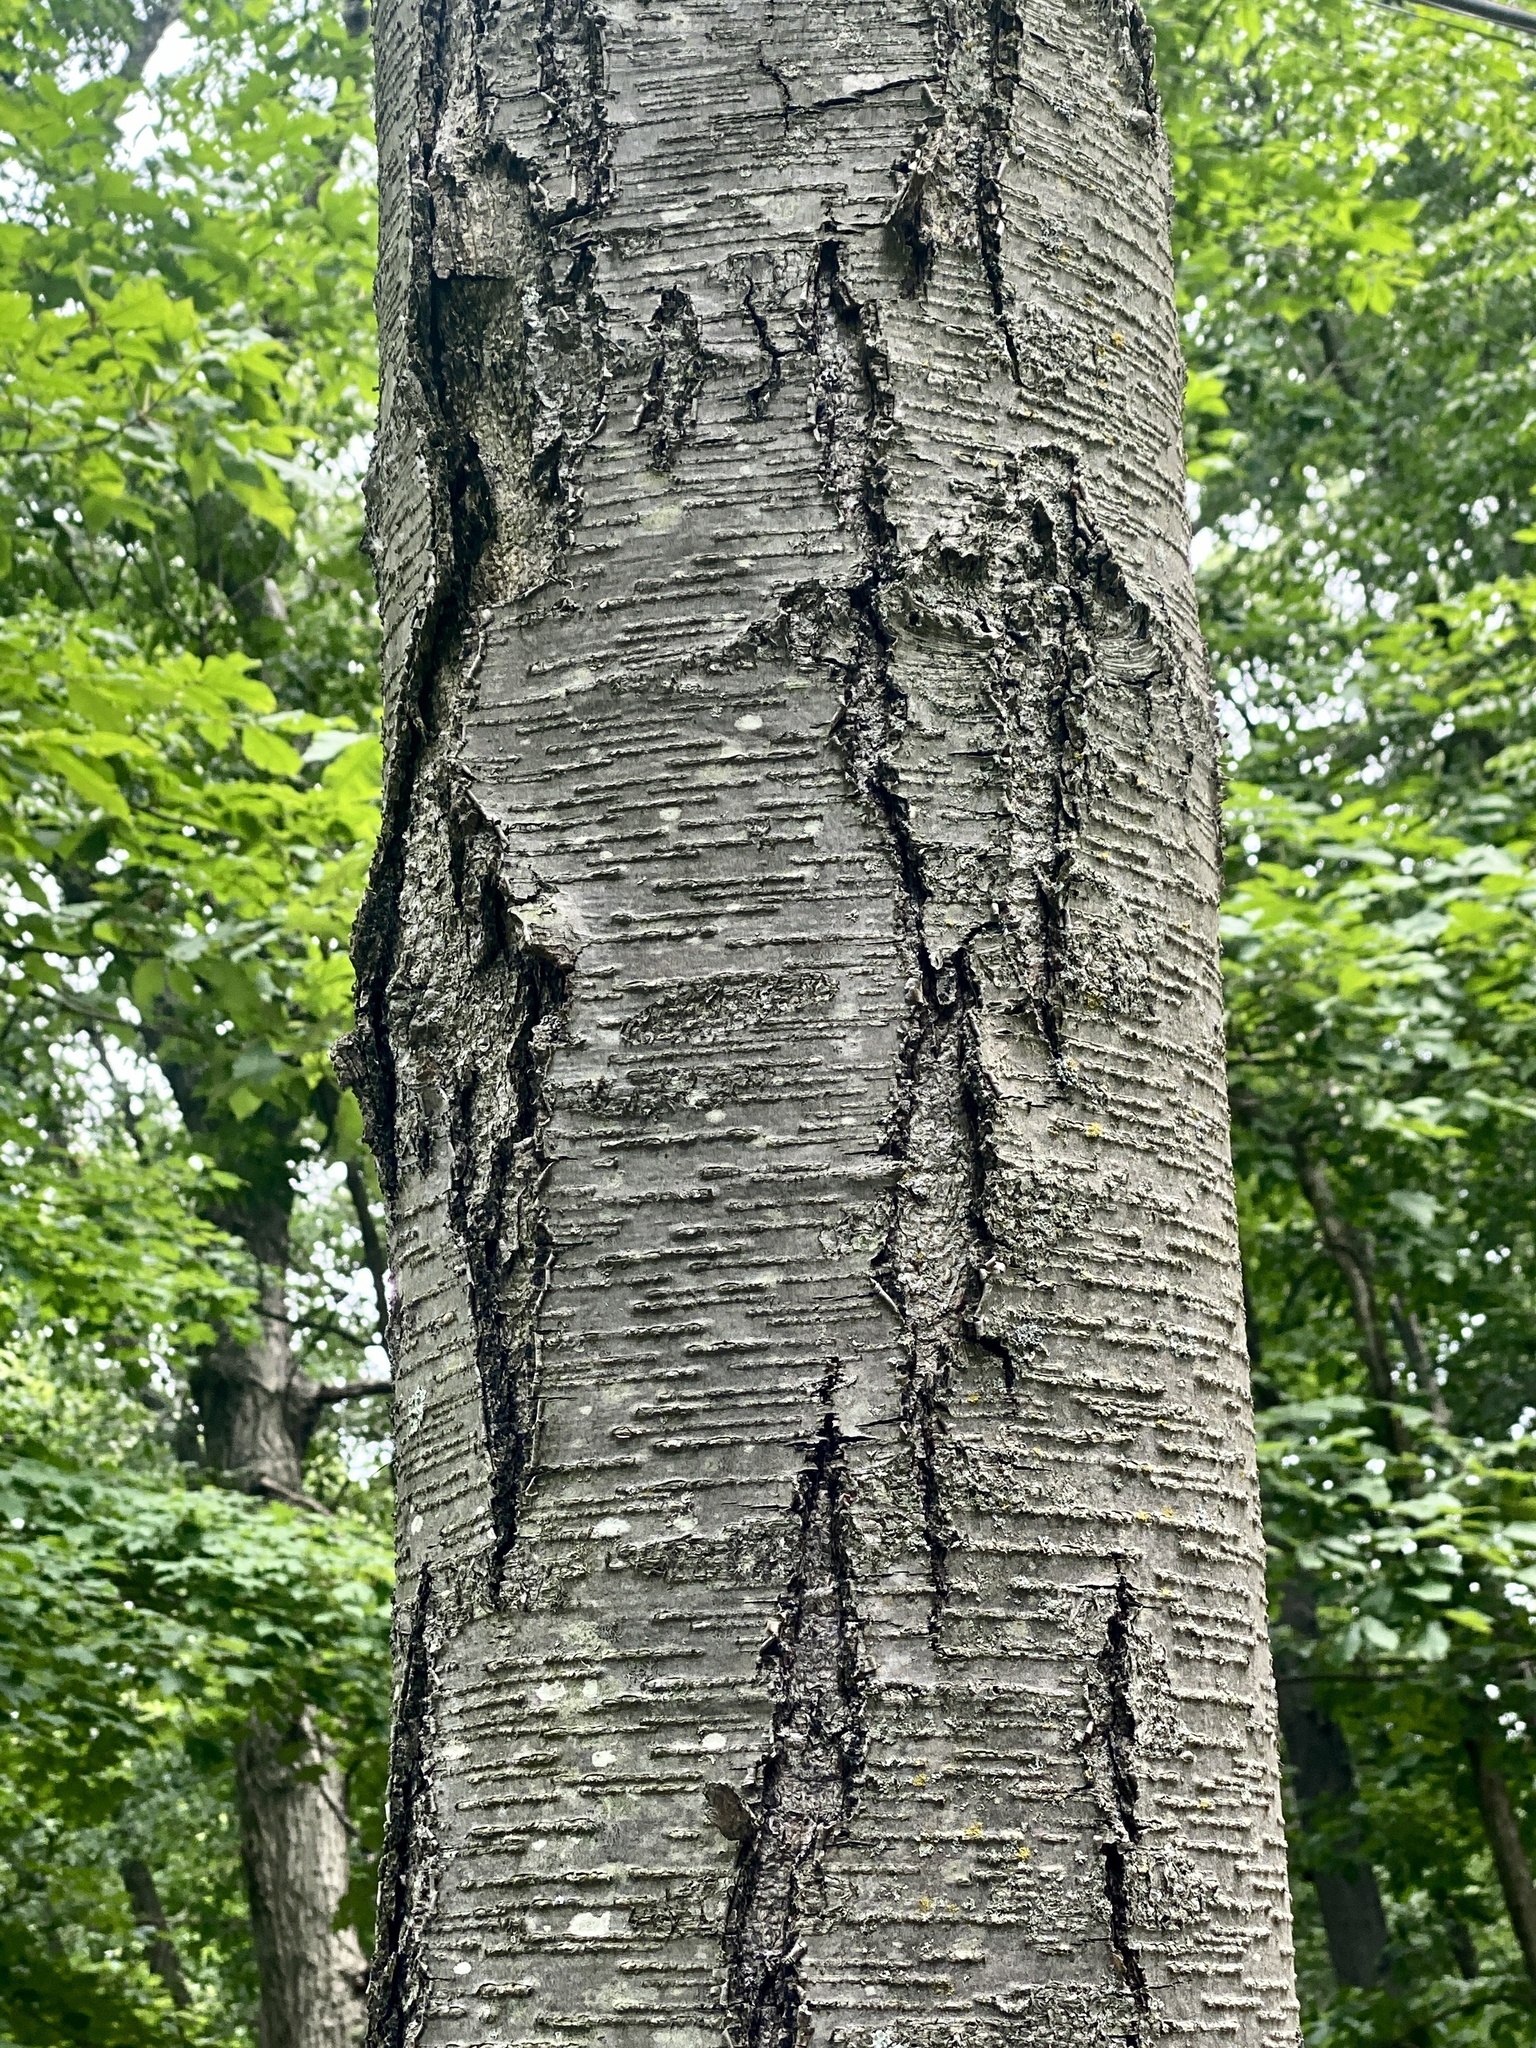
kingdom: Plantae
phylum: Tracheophyta
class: Magnoliopsida
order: Fagales
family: Betulaceae
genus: Betula
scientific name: Betula lenta
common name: Black birch
